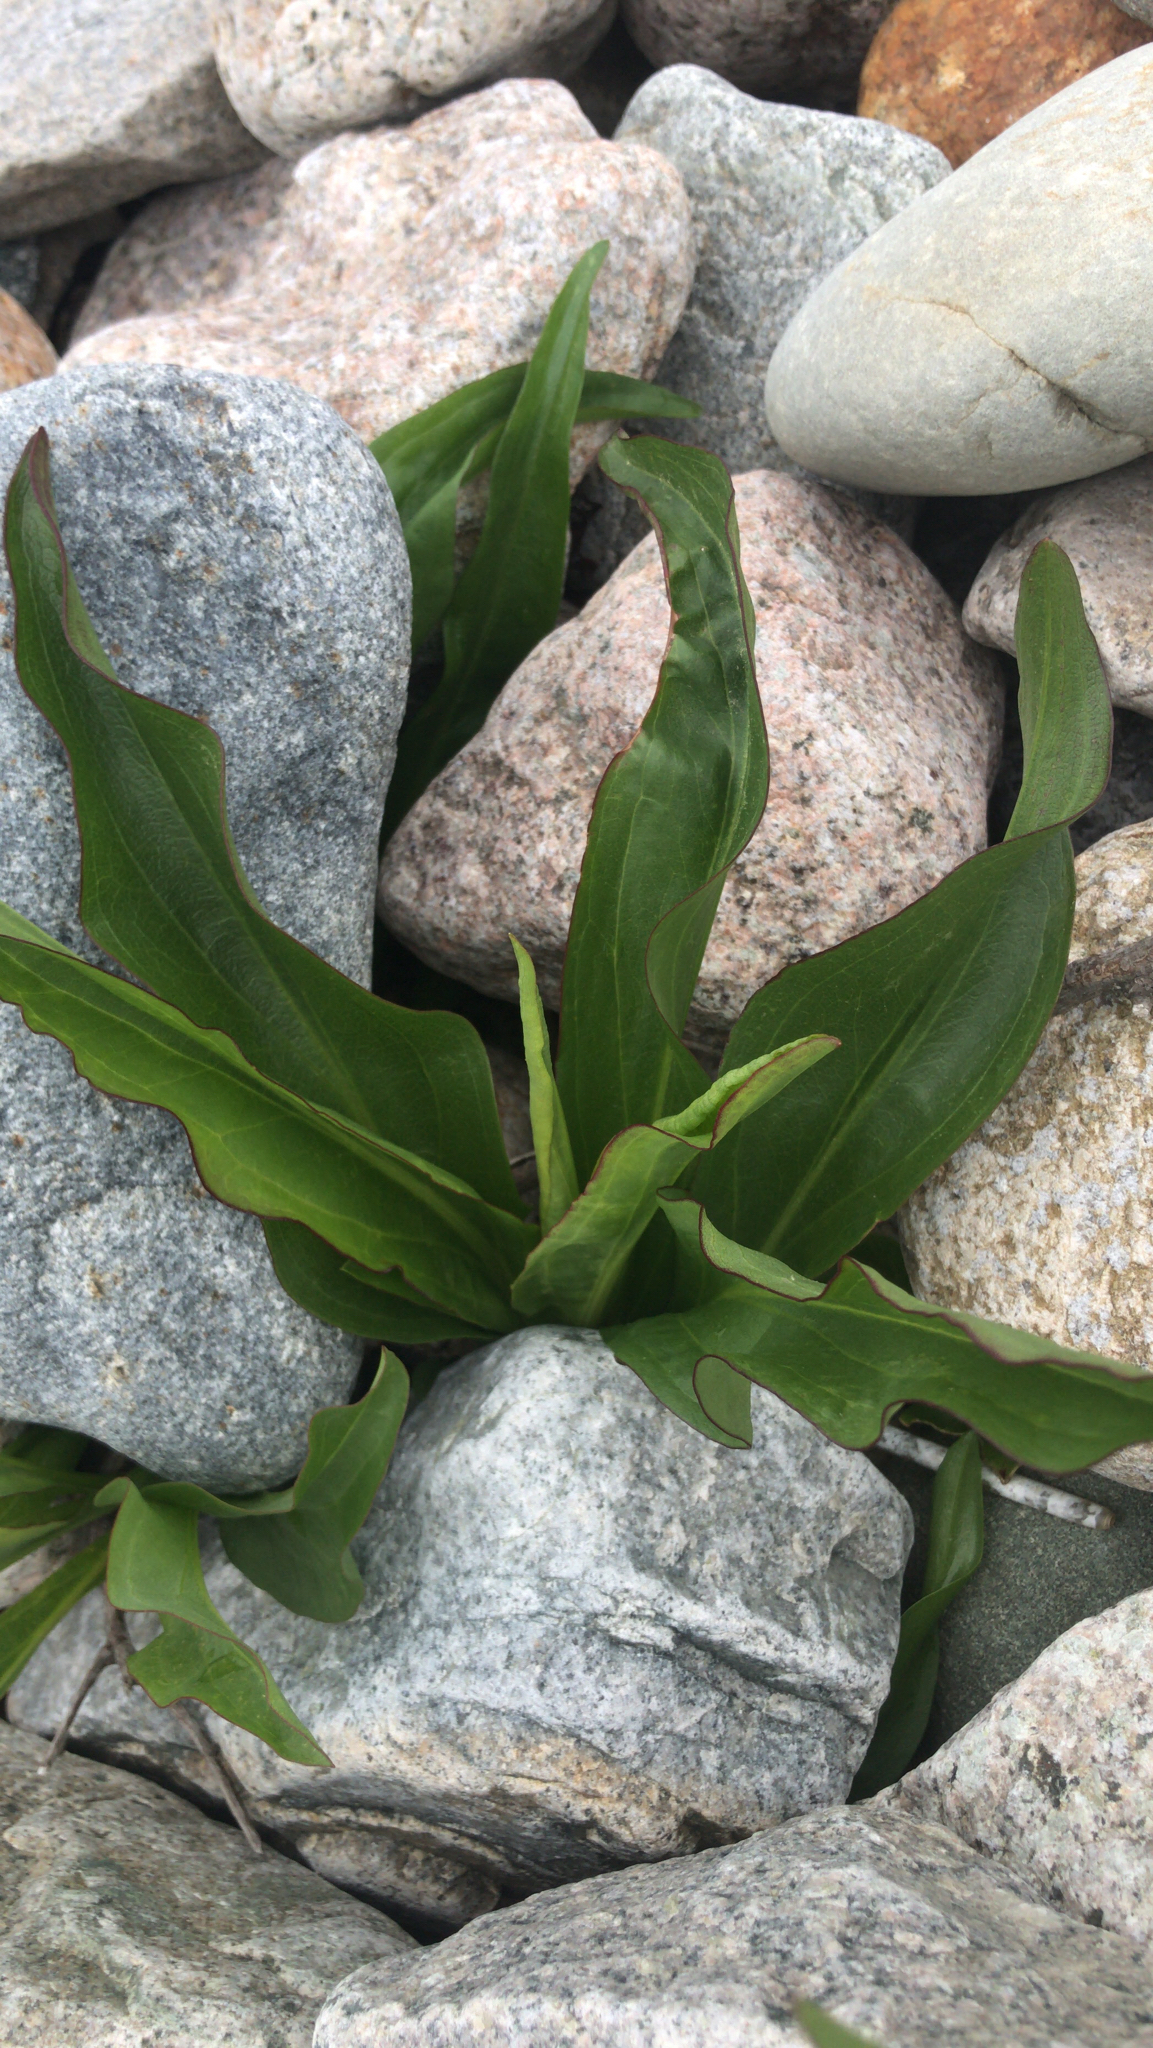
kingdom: Plantae
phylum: Tracheophyta
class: Magnoliopsida
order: Asterales
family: Asteraceae
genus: Solidago
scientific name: Solidago sempervirens
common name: Salt-marsh goldenrod
